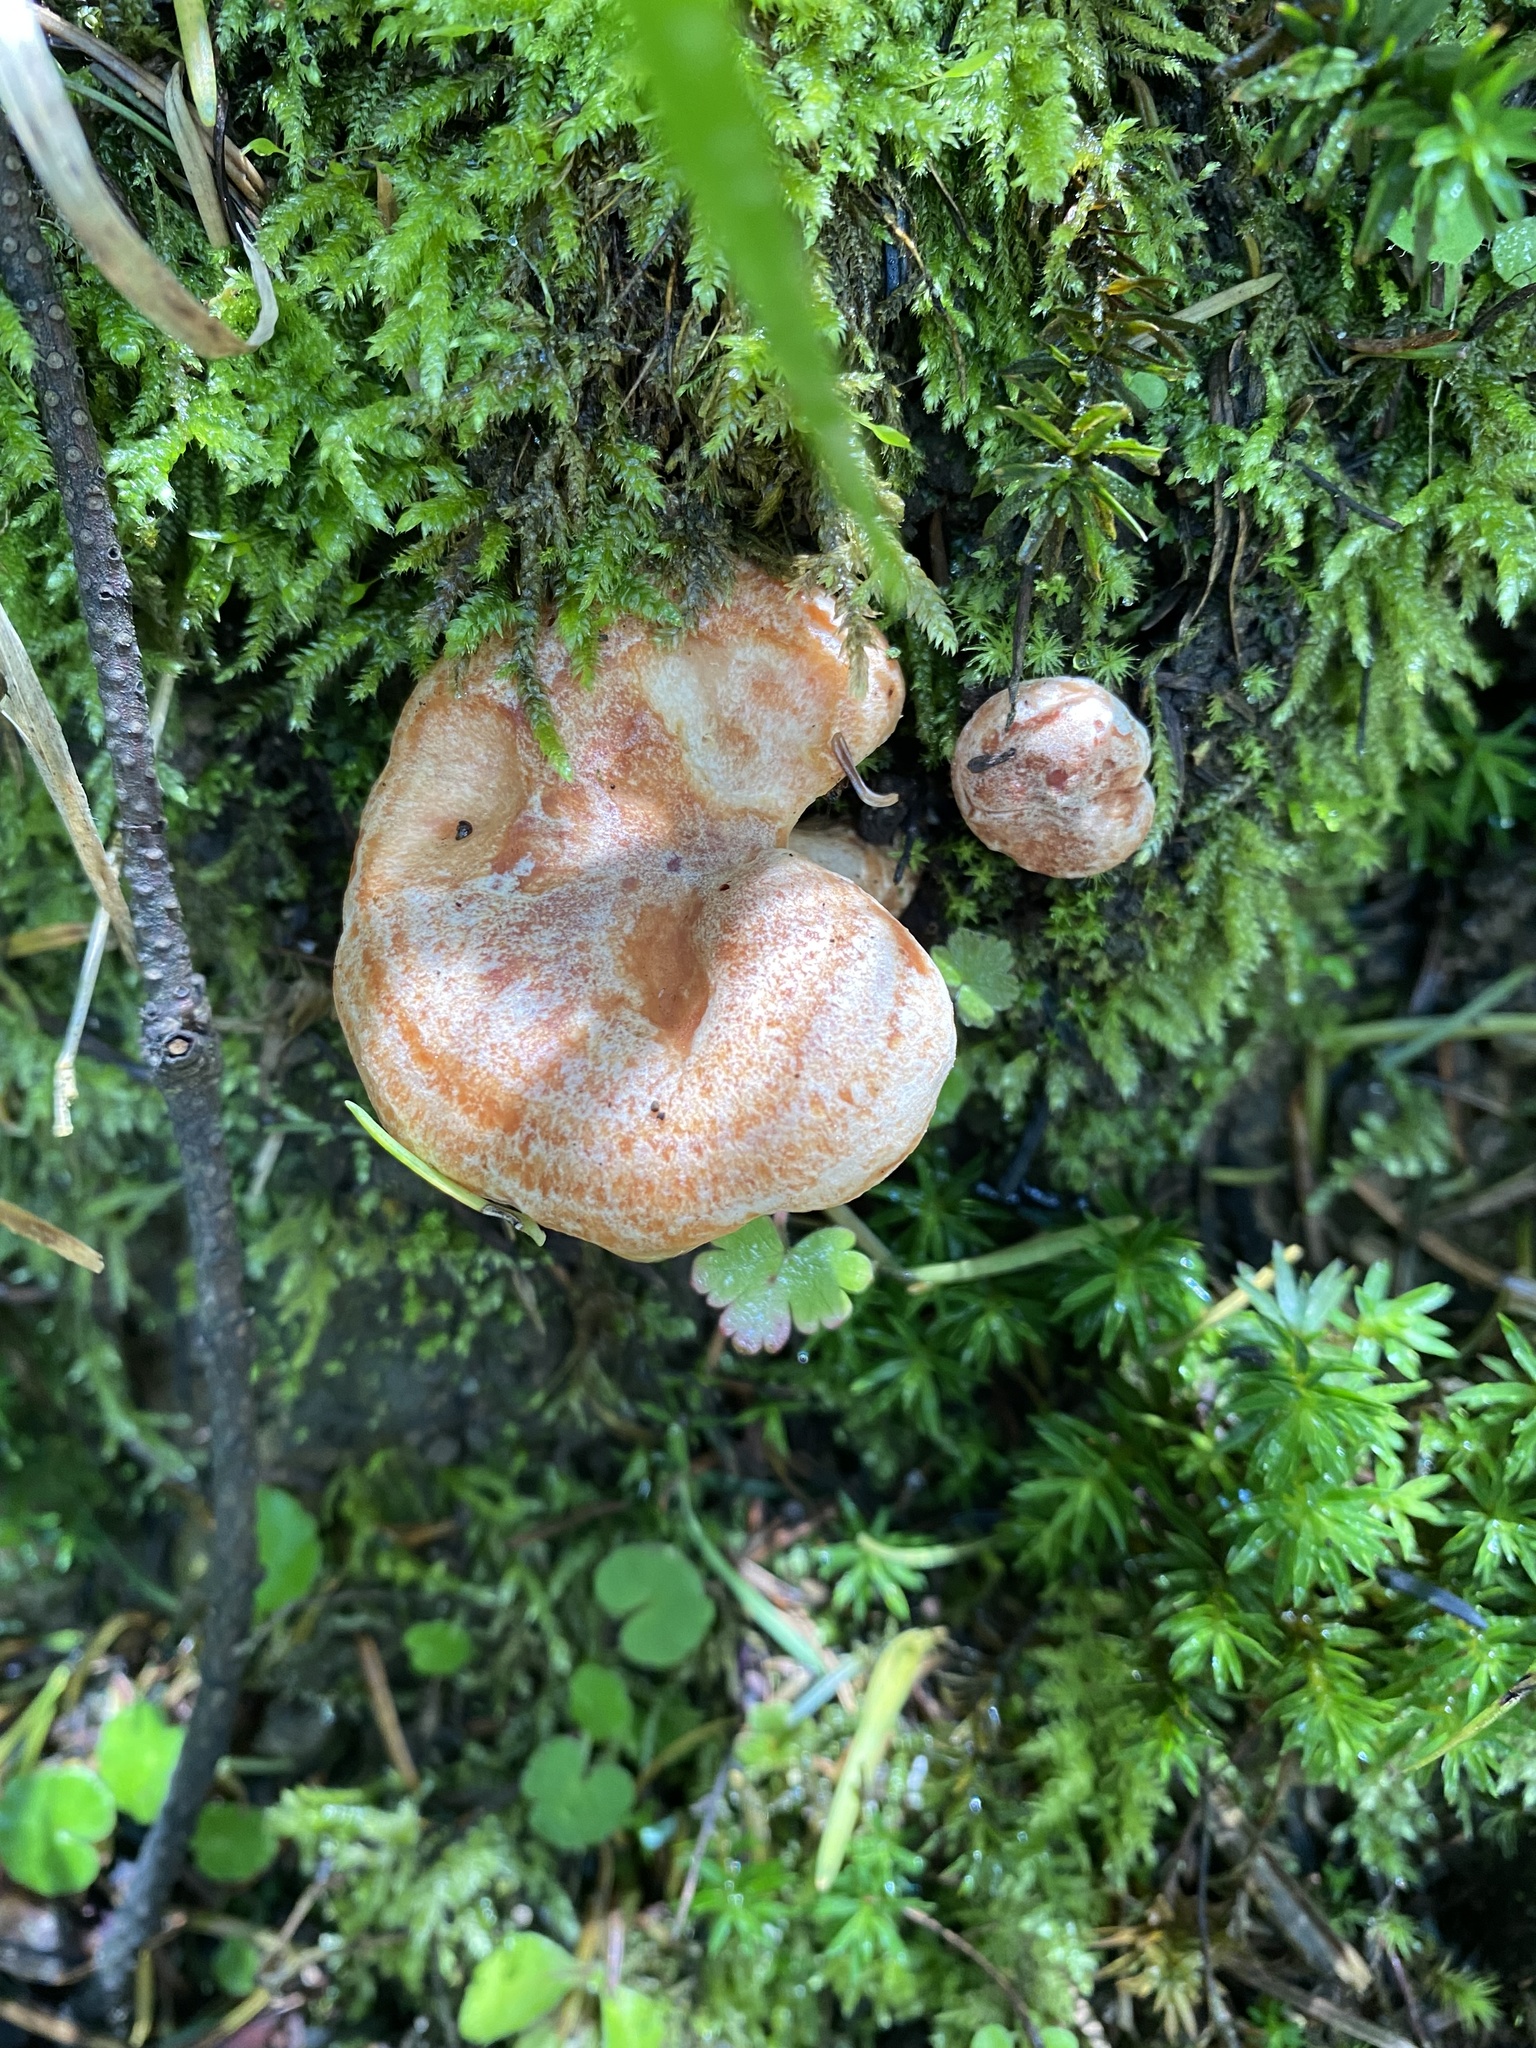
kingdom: Fungi
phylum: Basidiomycota
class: Agaricomycetes
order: Russulales
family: Russulaceae
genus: Lactarius
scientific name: Lactarius salmonicolor
